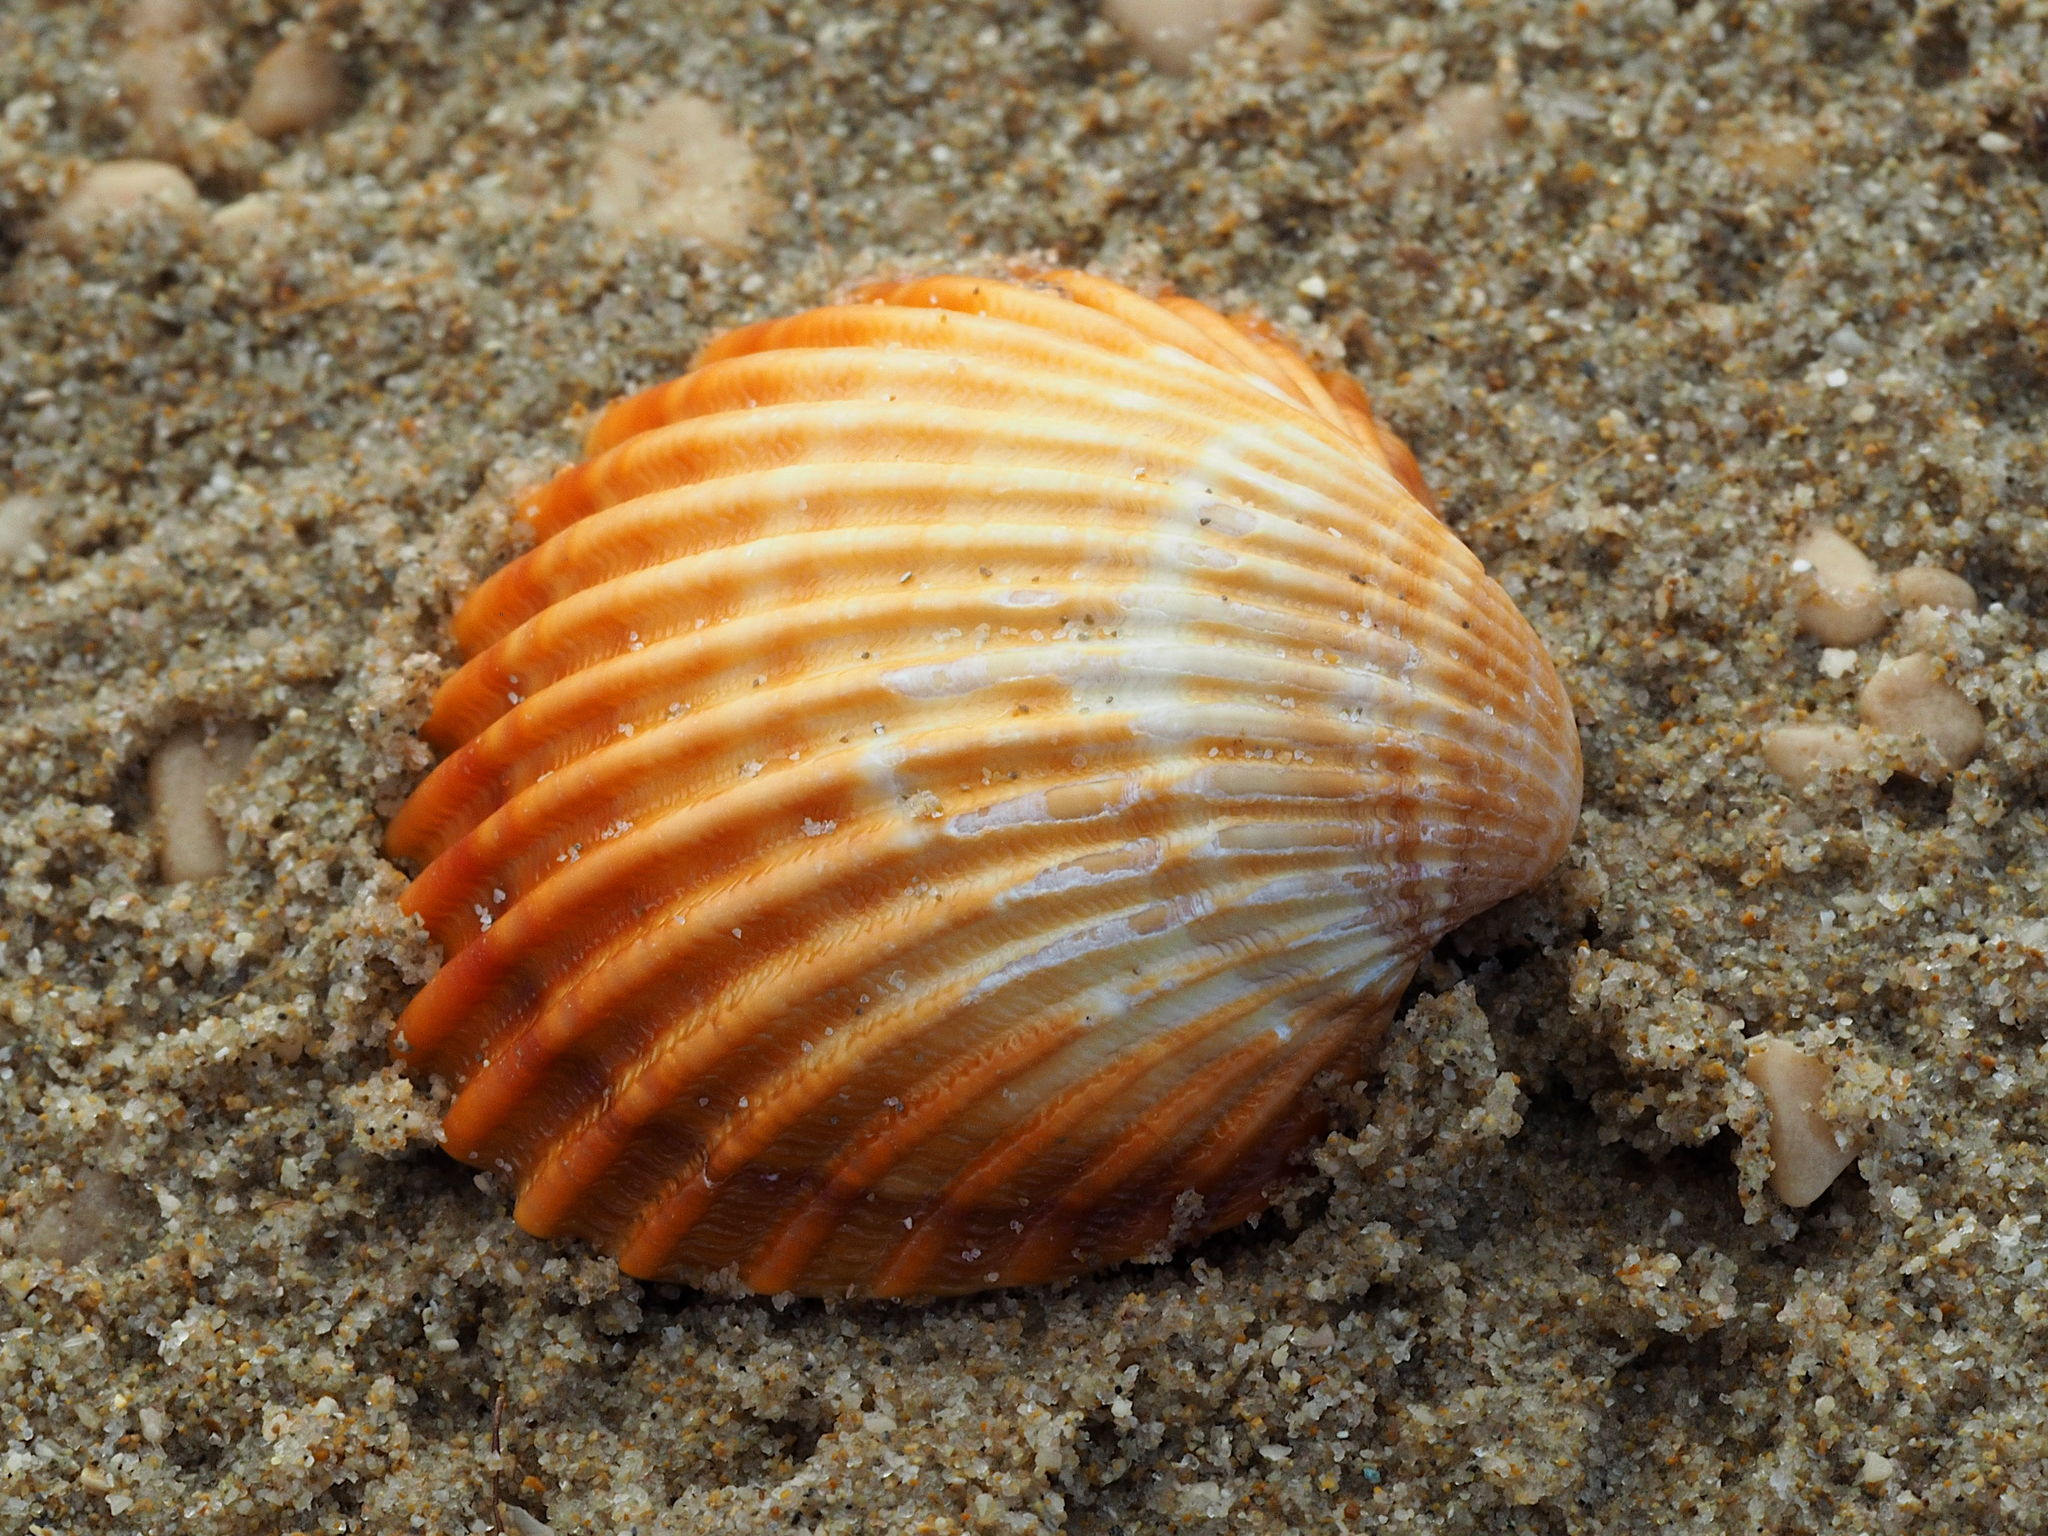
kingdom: Animalia
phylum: Mollusca
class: Bivalvia
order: Cardiida
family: Cardiidae
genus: Acanthocardia
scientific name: Acanthocardia tuberculata
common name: Rough cockle
